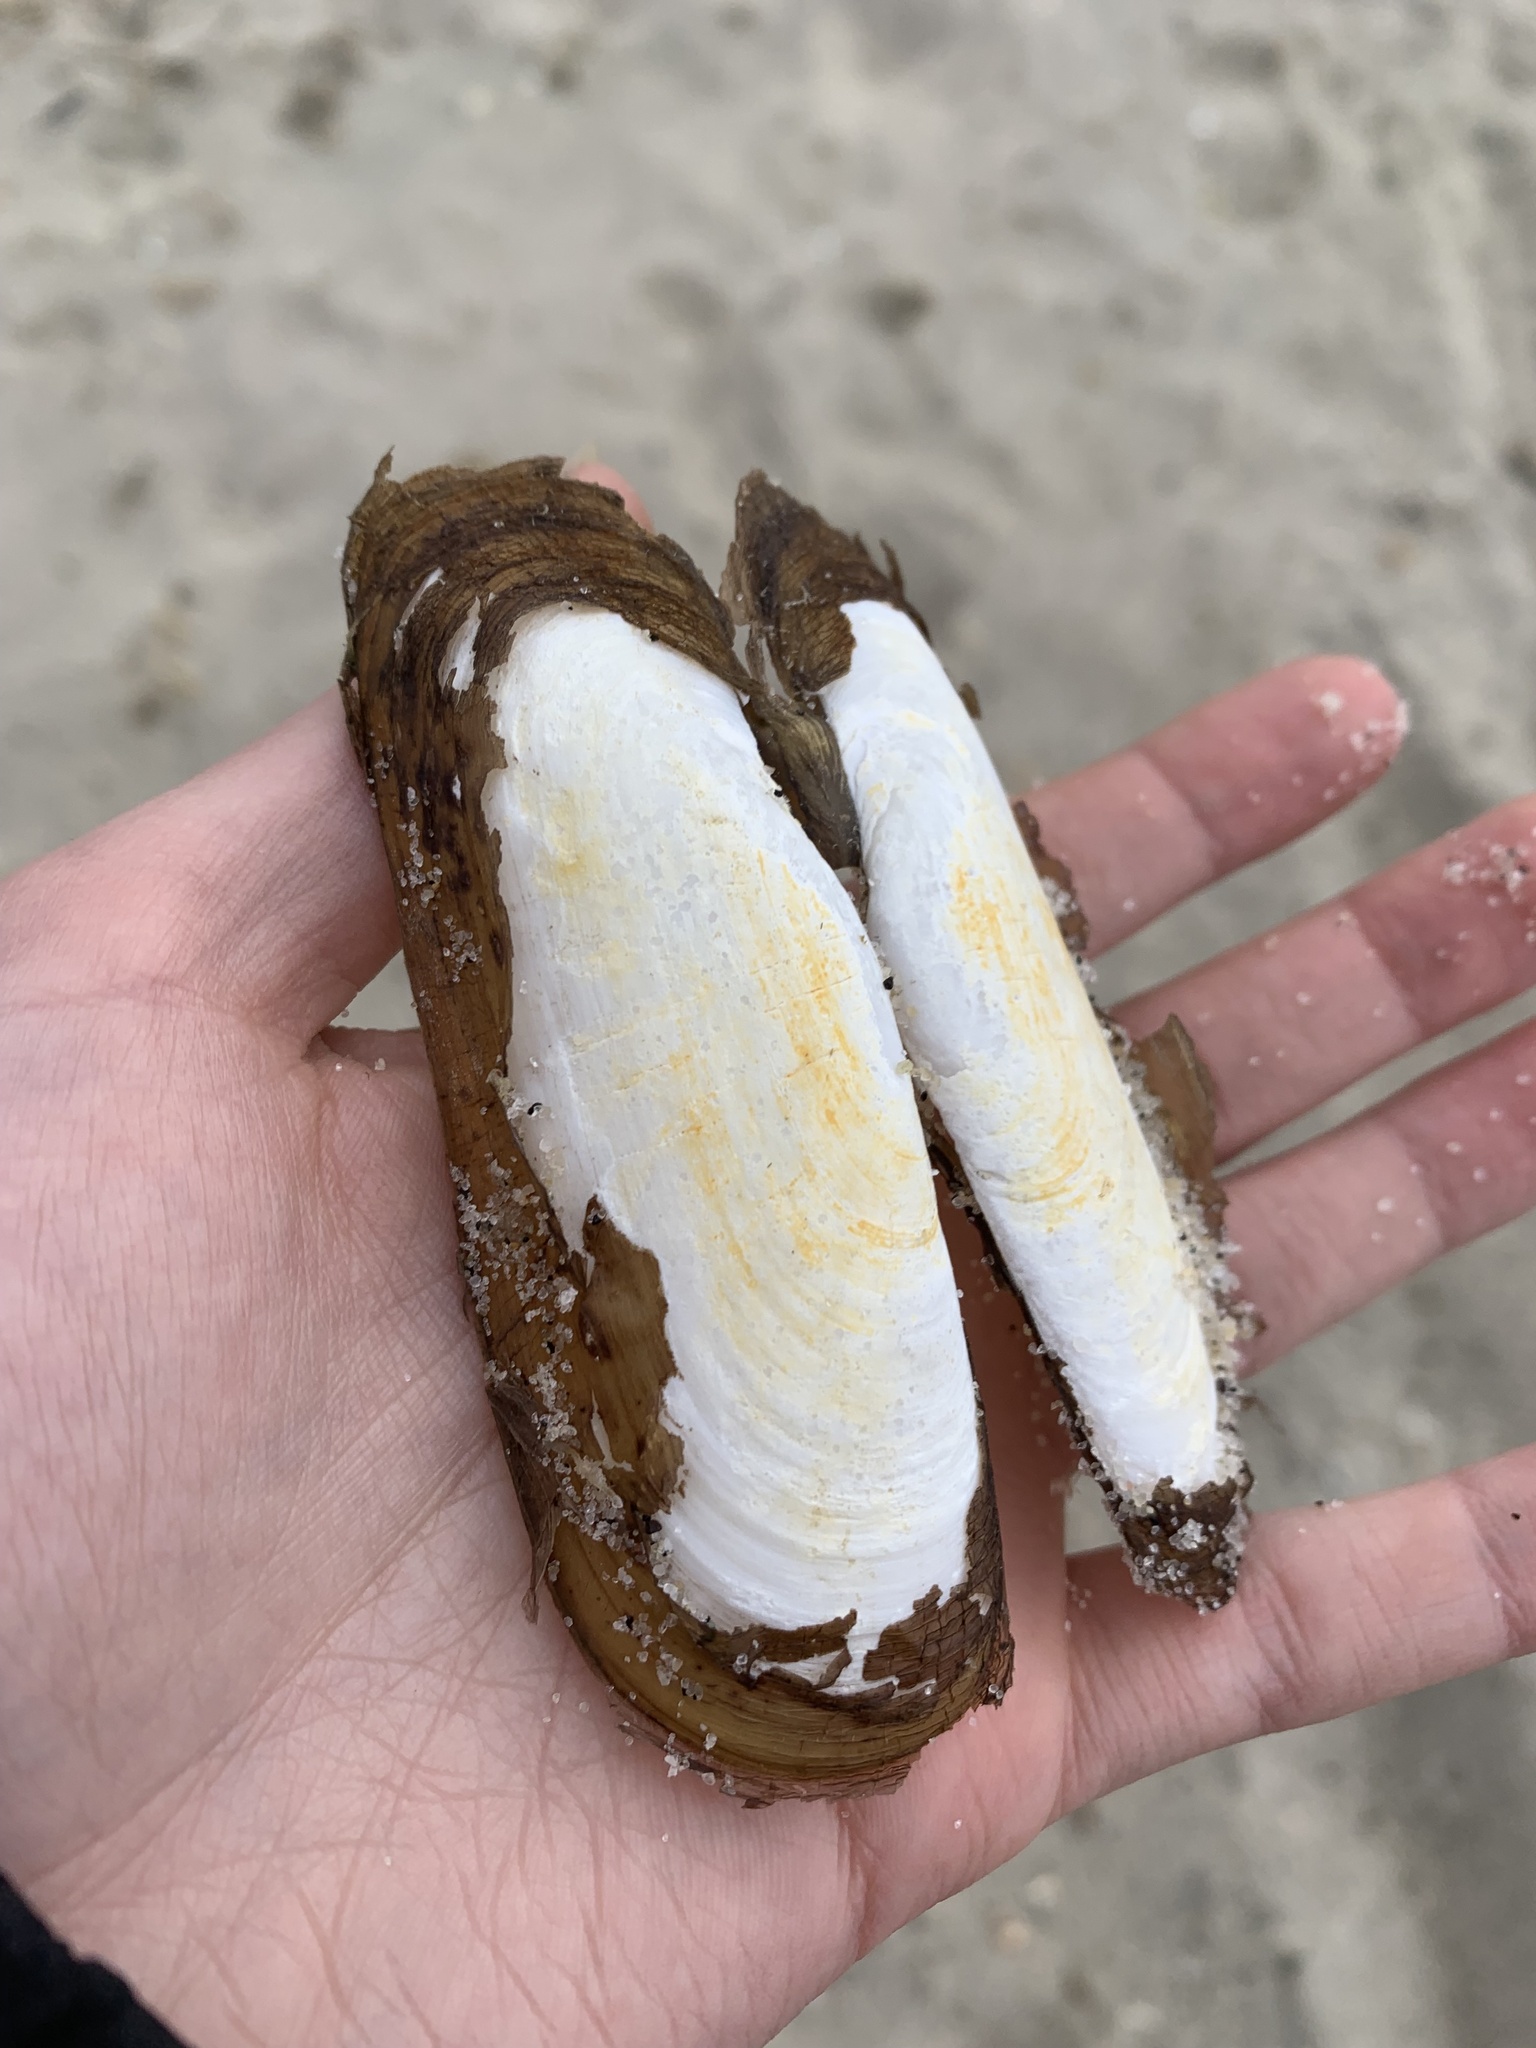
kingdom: Animalia
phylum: Mollusca
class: Bivalvia
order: Cardiida
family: Solecurtidae
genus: Tagelus
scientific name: Tagelus plebeius
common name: Stout tagelus
